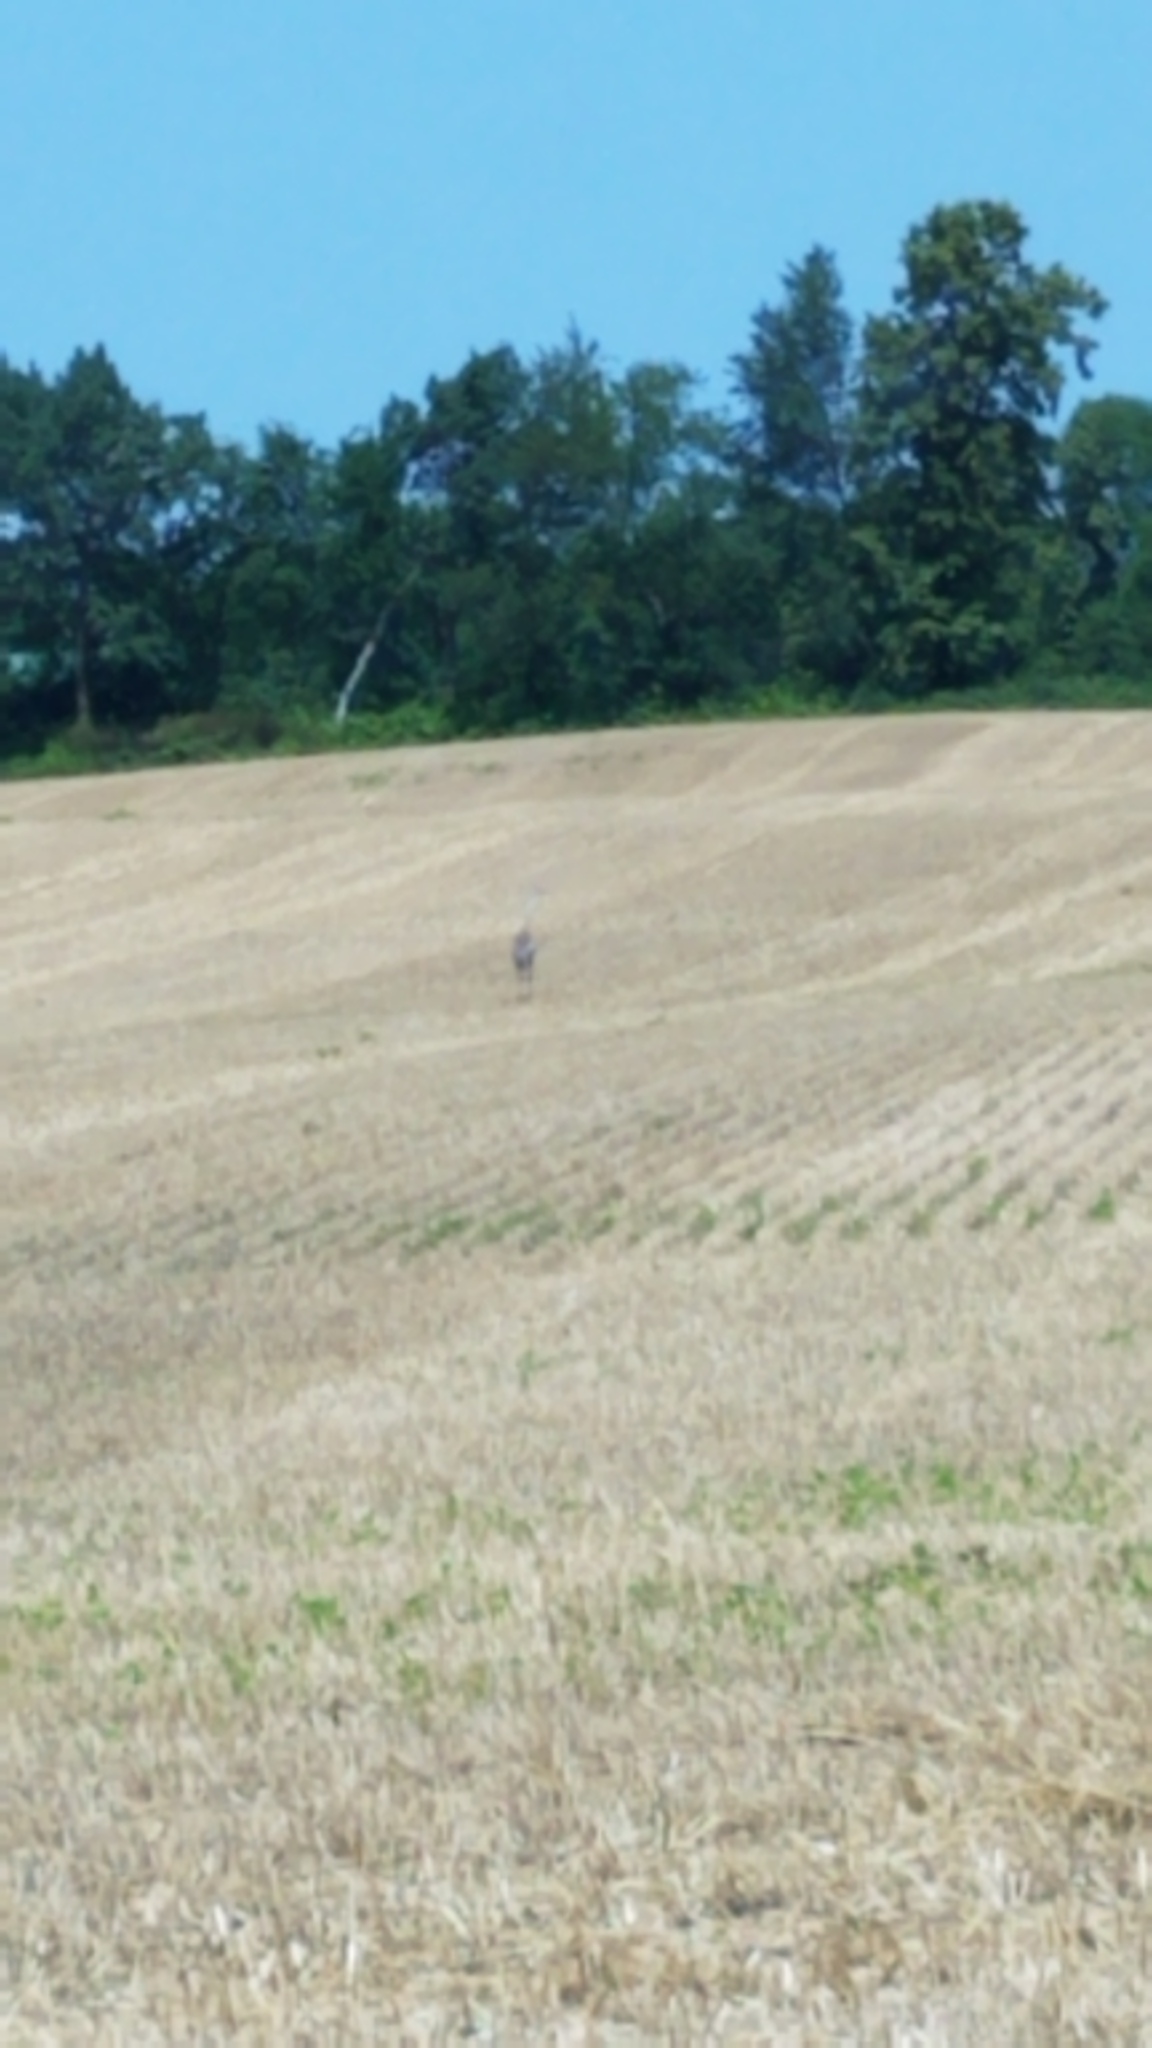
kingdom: Animalia
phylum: Chordata
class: Aves
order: Gruiformes
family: Gruidae
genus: Grus
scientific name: Grus canadensis
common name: Sandhill crane
